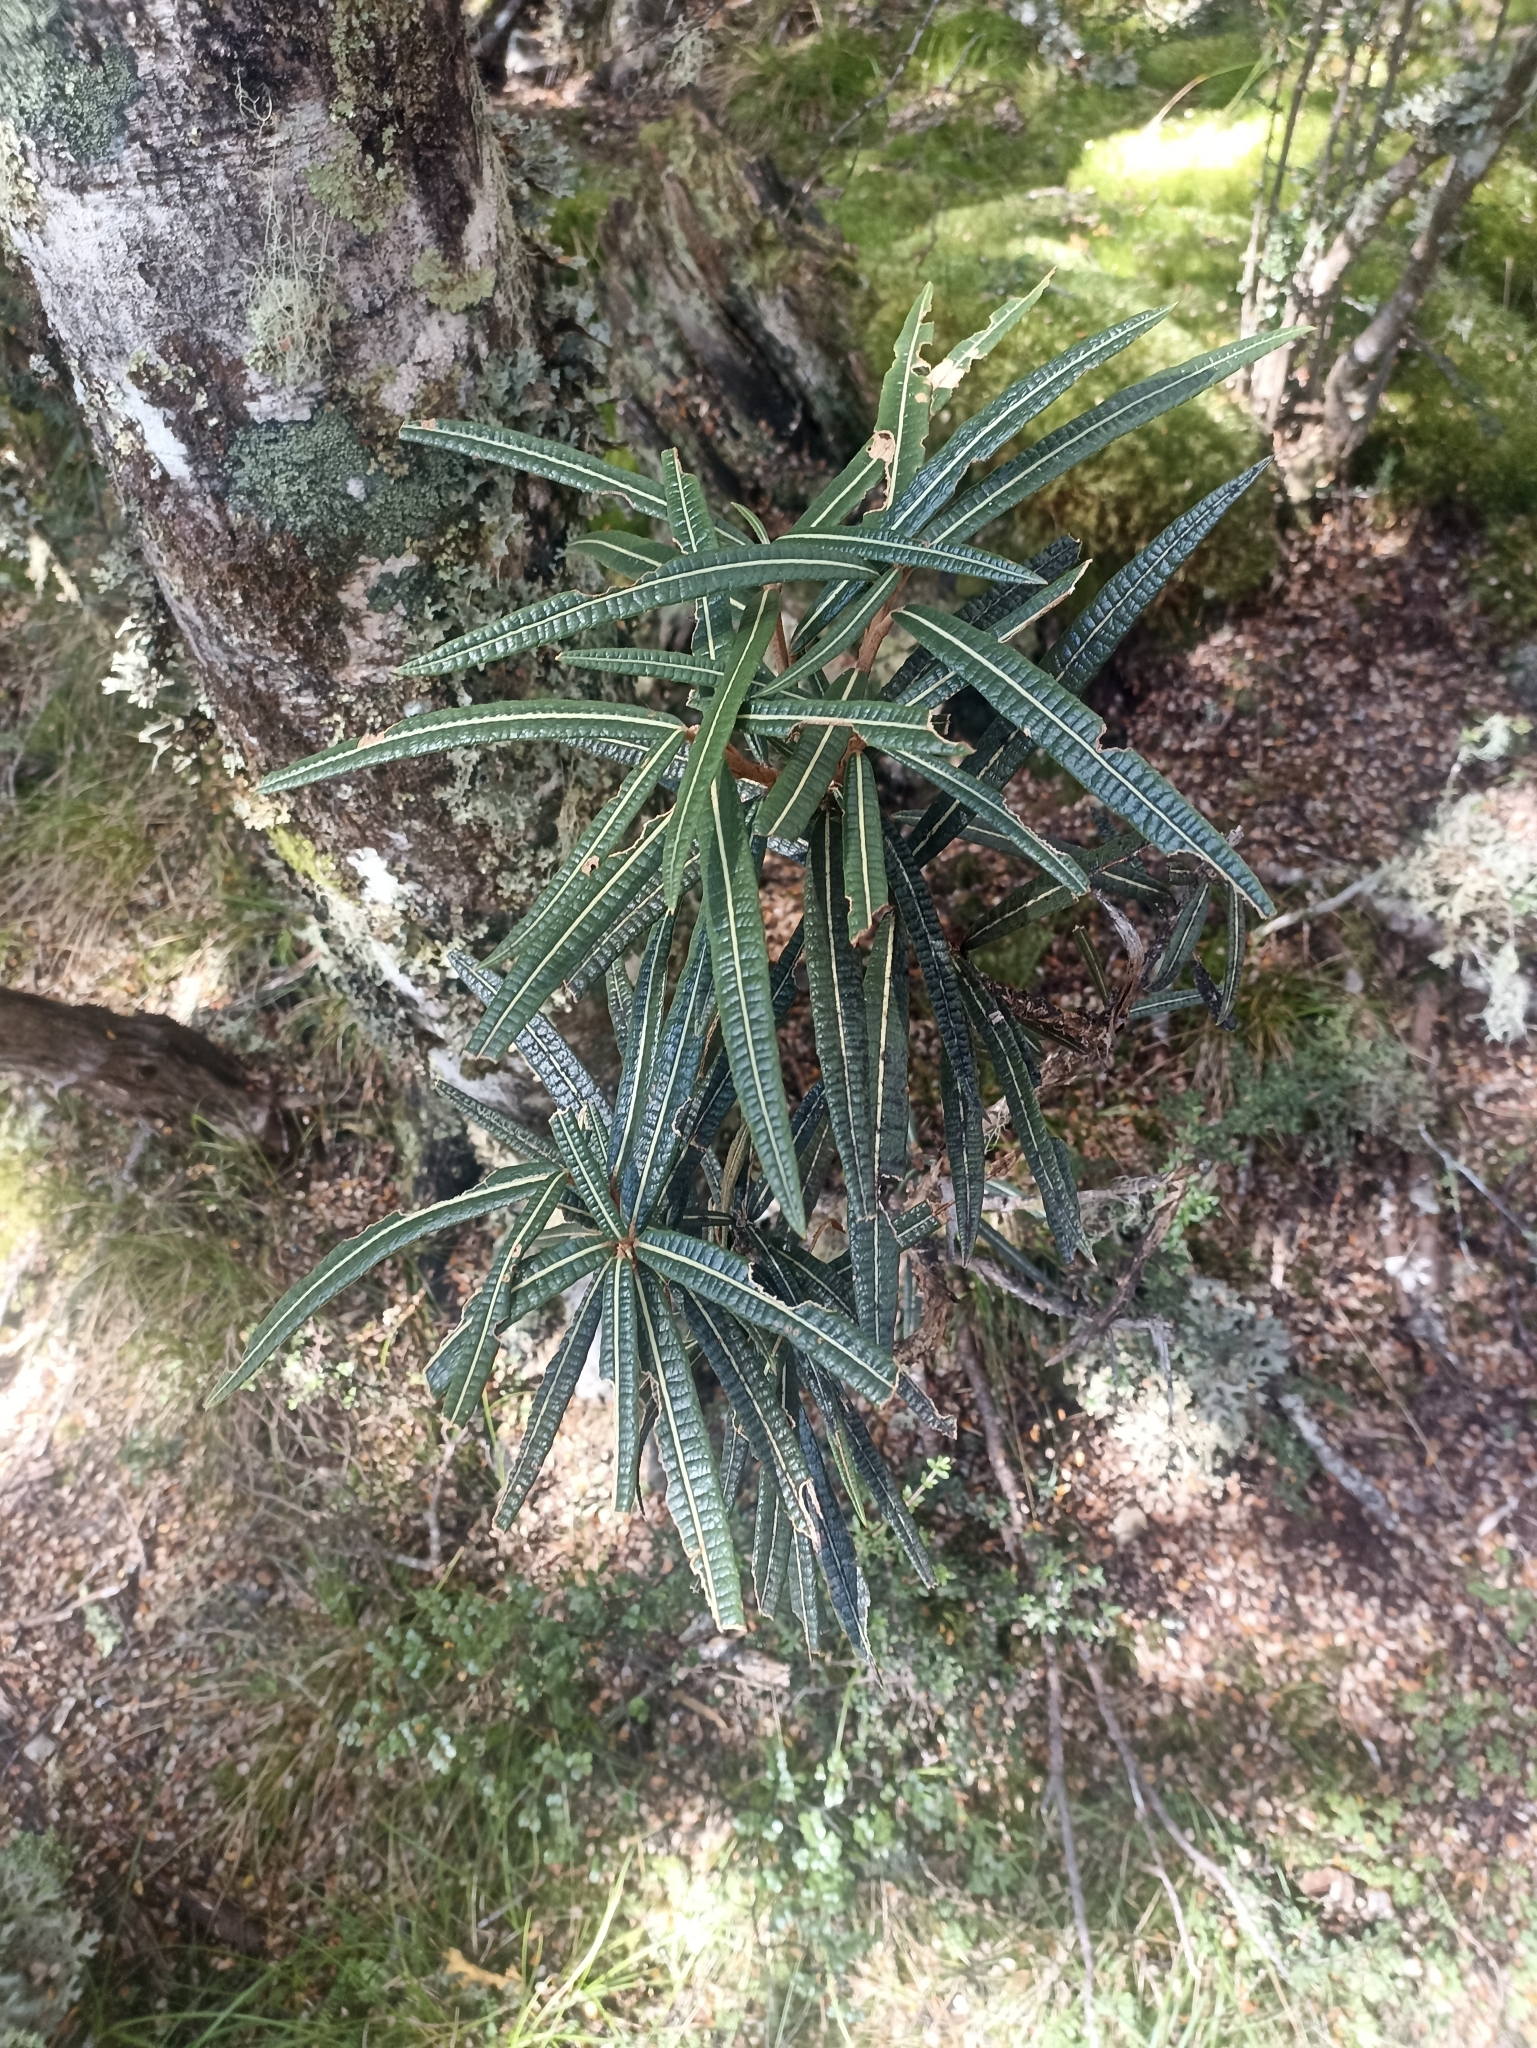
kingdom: Plantae
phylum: Tracheophyta
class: Magnoliopsida
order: Asterales
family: Asteraceae
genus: Olearia
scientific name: Olearia lacunosa
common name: Lancewood tree daisy
